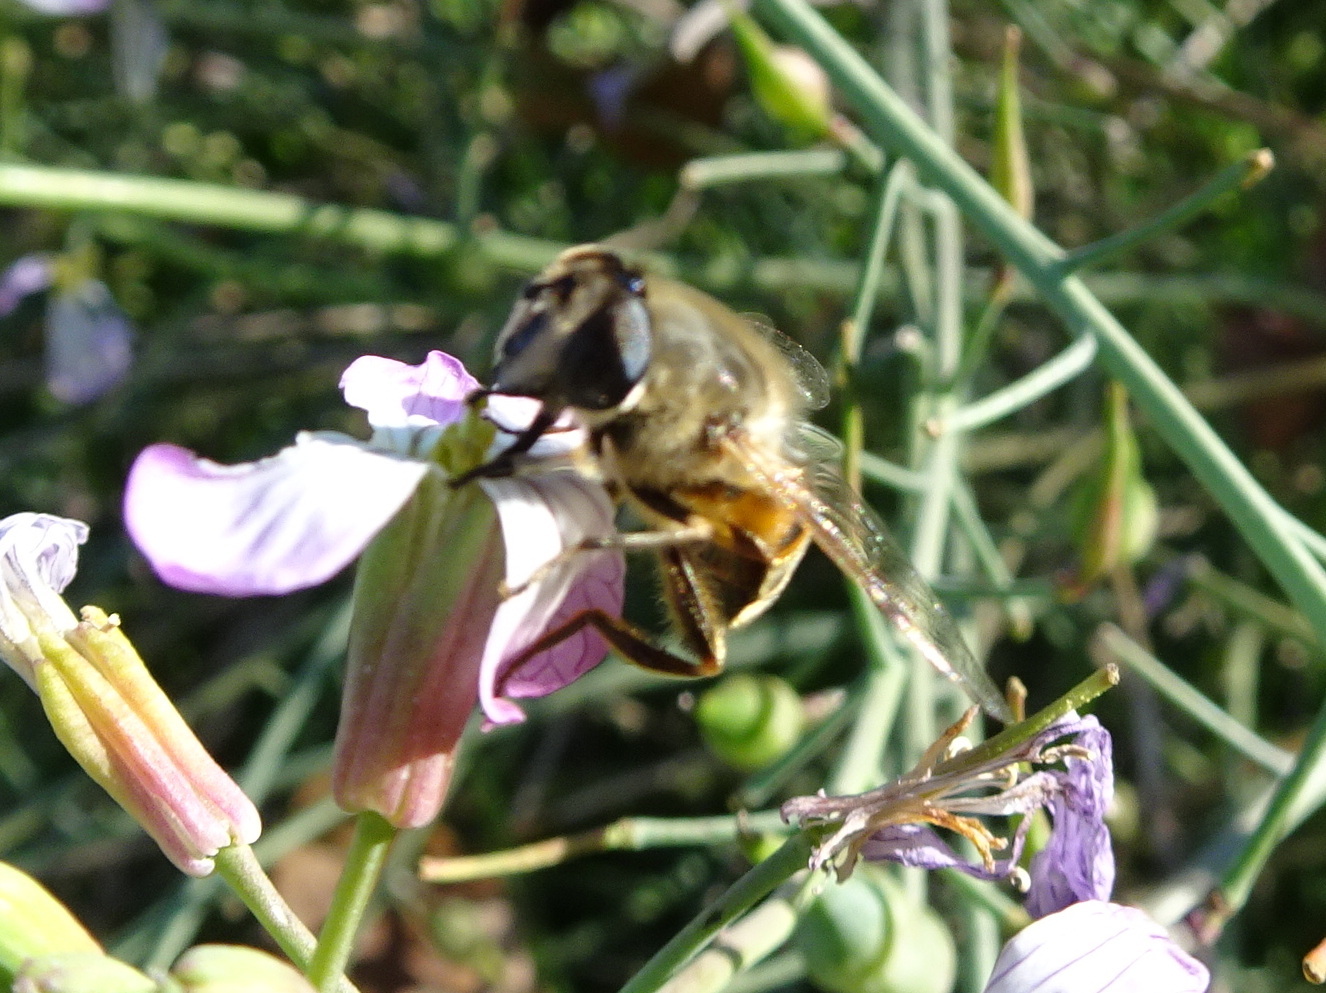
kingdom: Animalia
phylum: Arthropoda
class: Insecta
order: Diptera
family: Syrphidae
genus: Eristalis
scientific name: Eristalis tenax
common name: Drone fly
